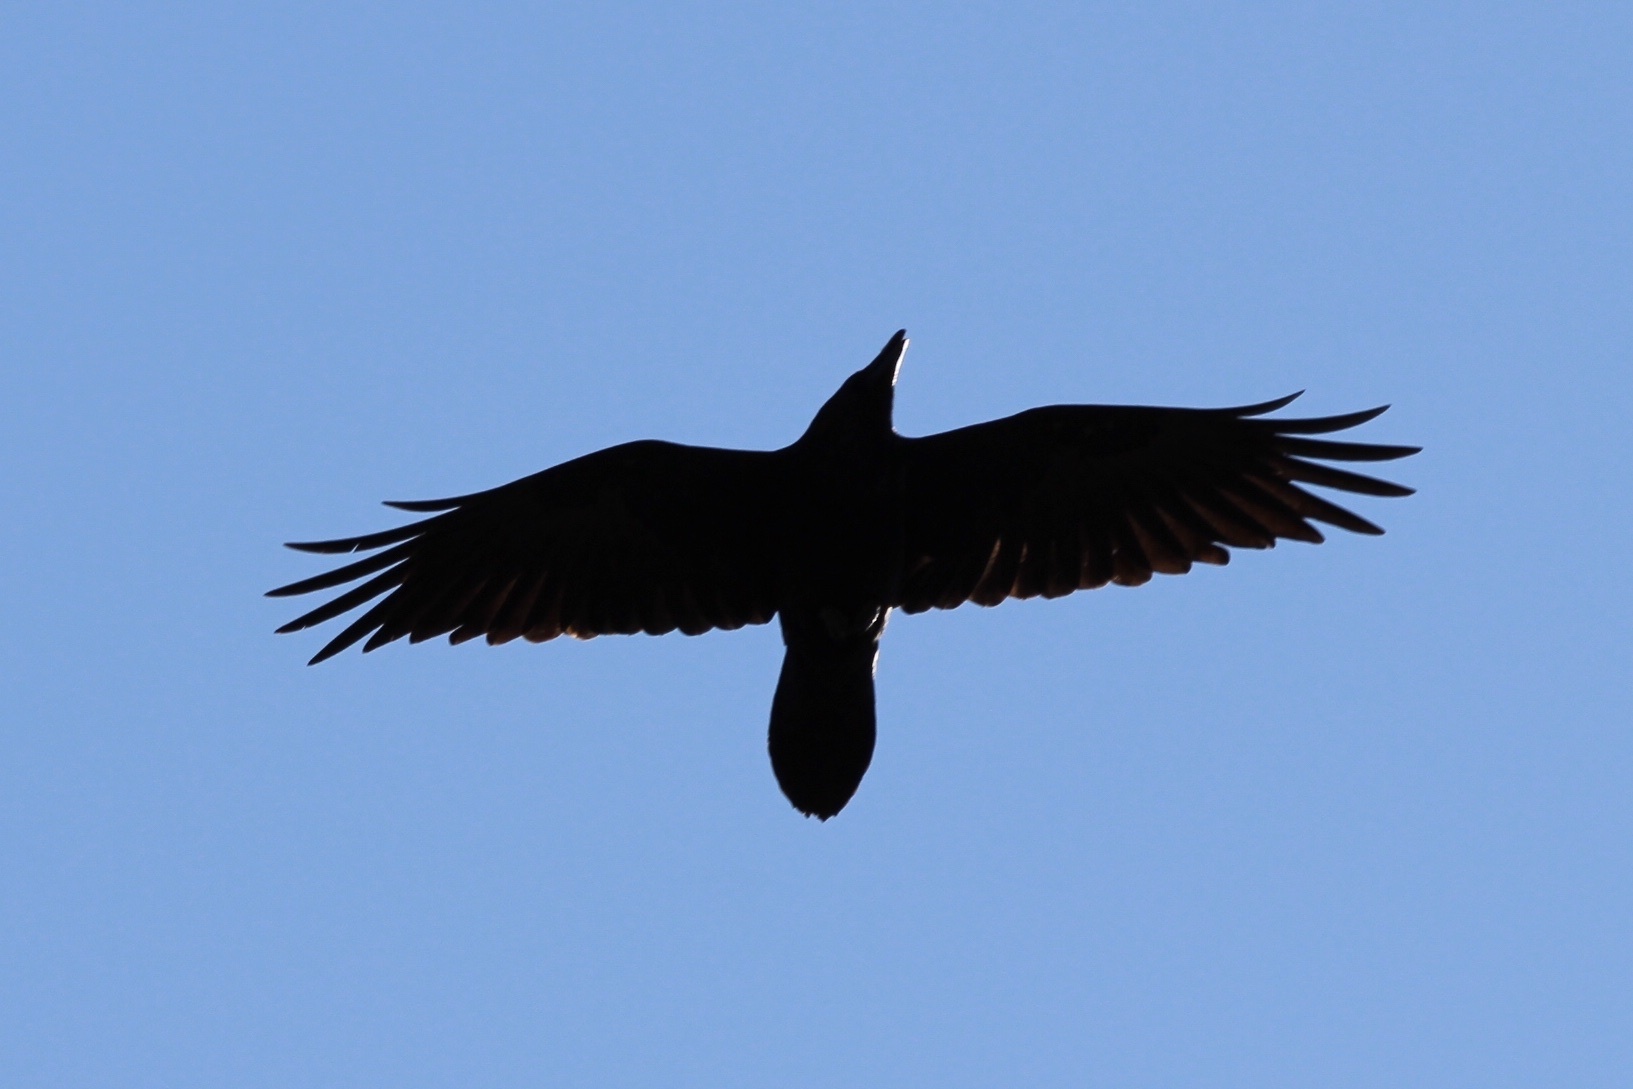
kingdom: Animalia
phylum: Chordata
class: Aves
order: Passeriformes
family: Corvidae
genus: Corvus
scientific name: Corvus corax
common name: Common raven
